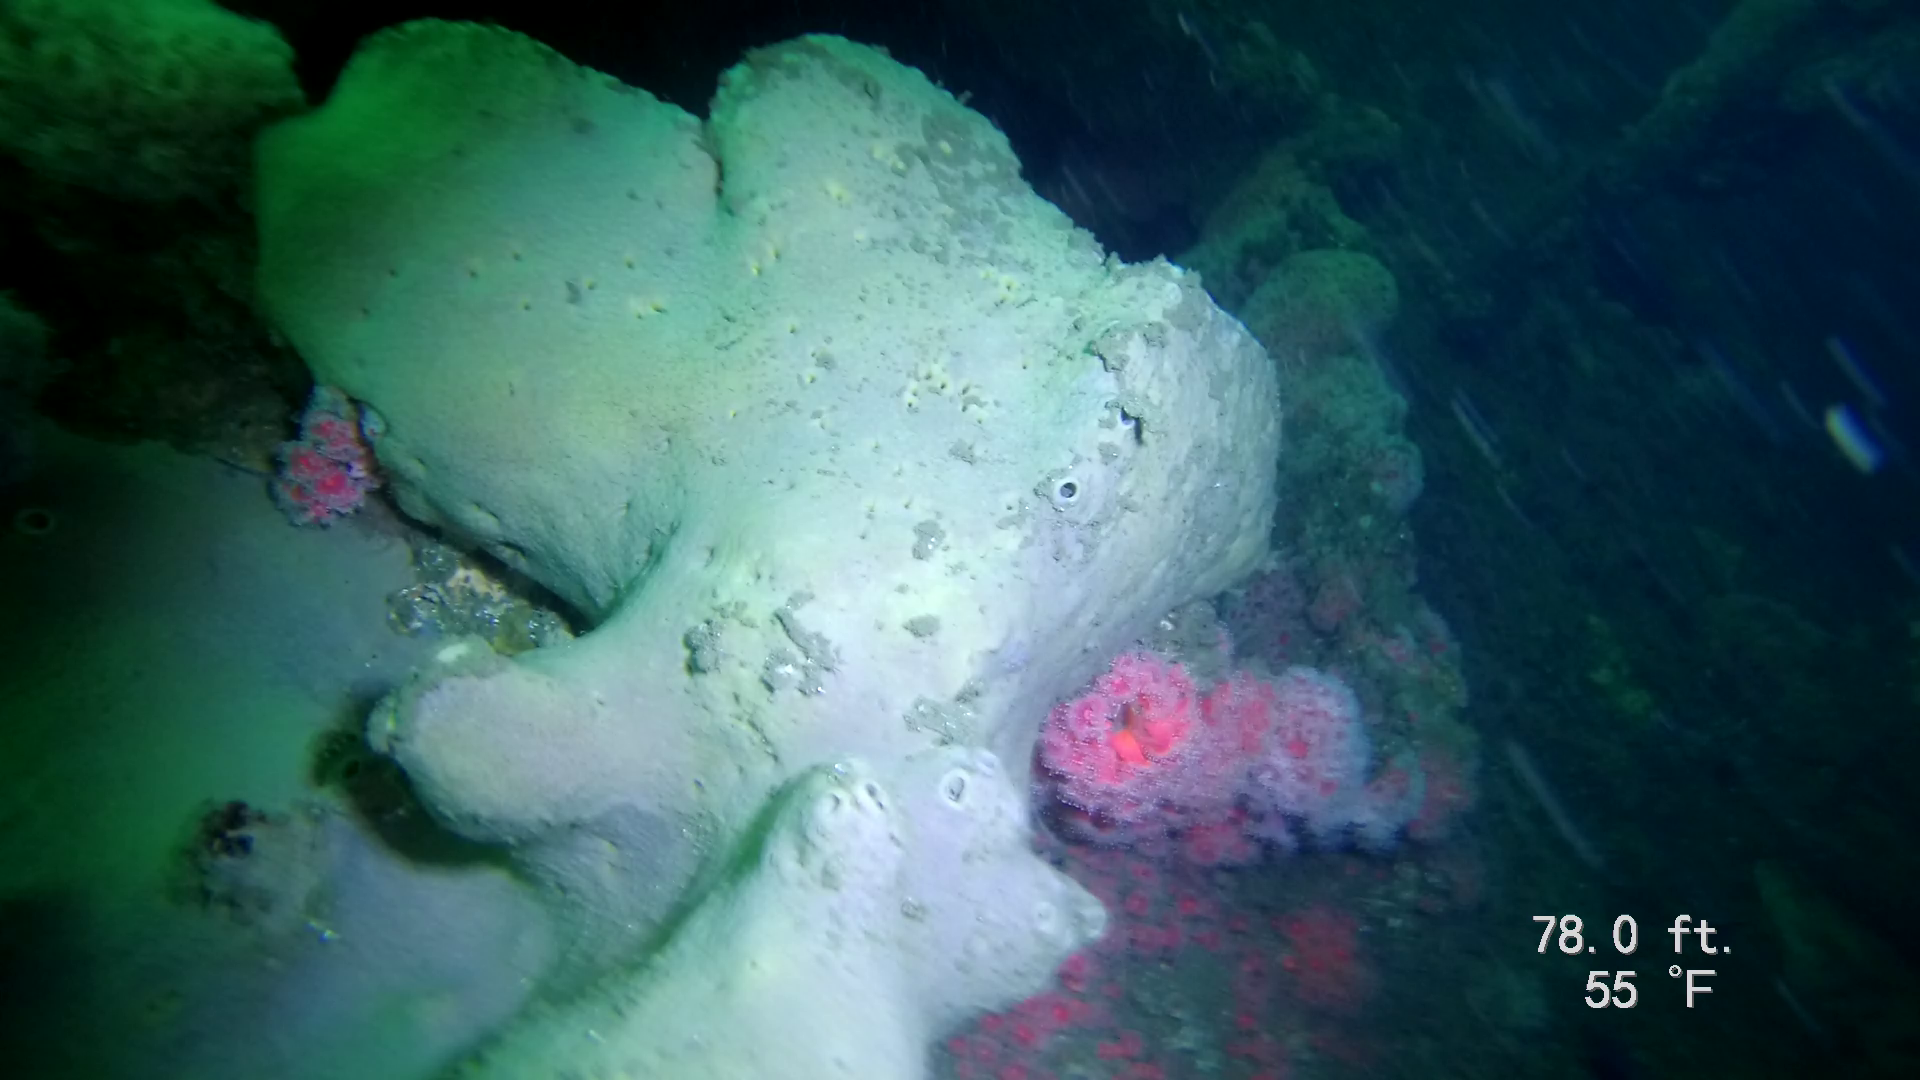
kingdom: Animalia
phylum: Porifera
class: Demospongiae
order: Clionaida
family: Clionaidae
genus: Spheciospongia
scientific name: Spheciospongia confoederata
